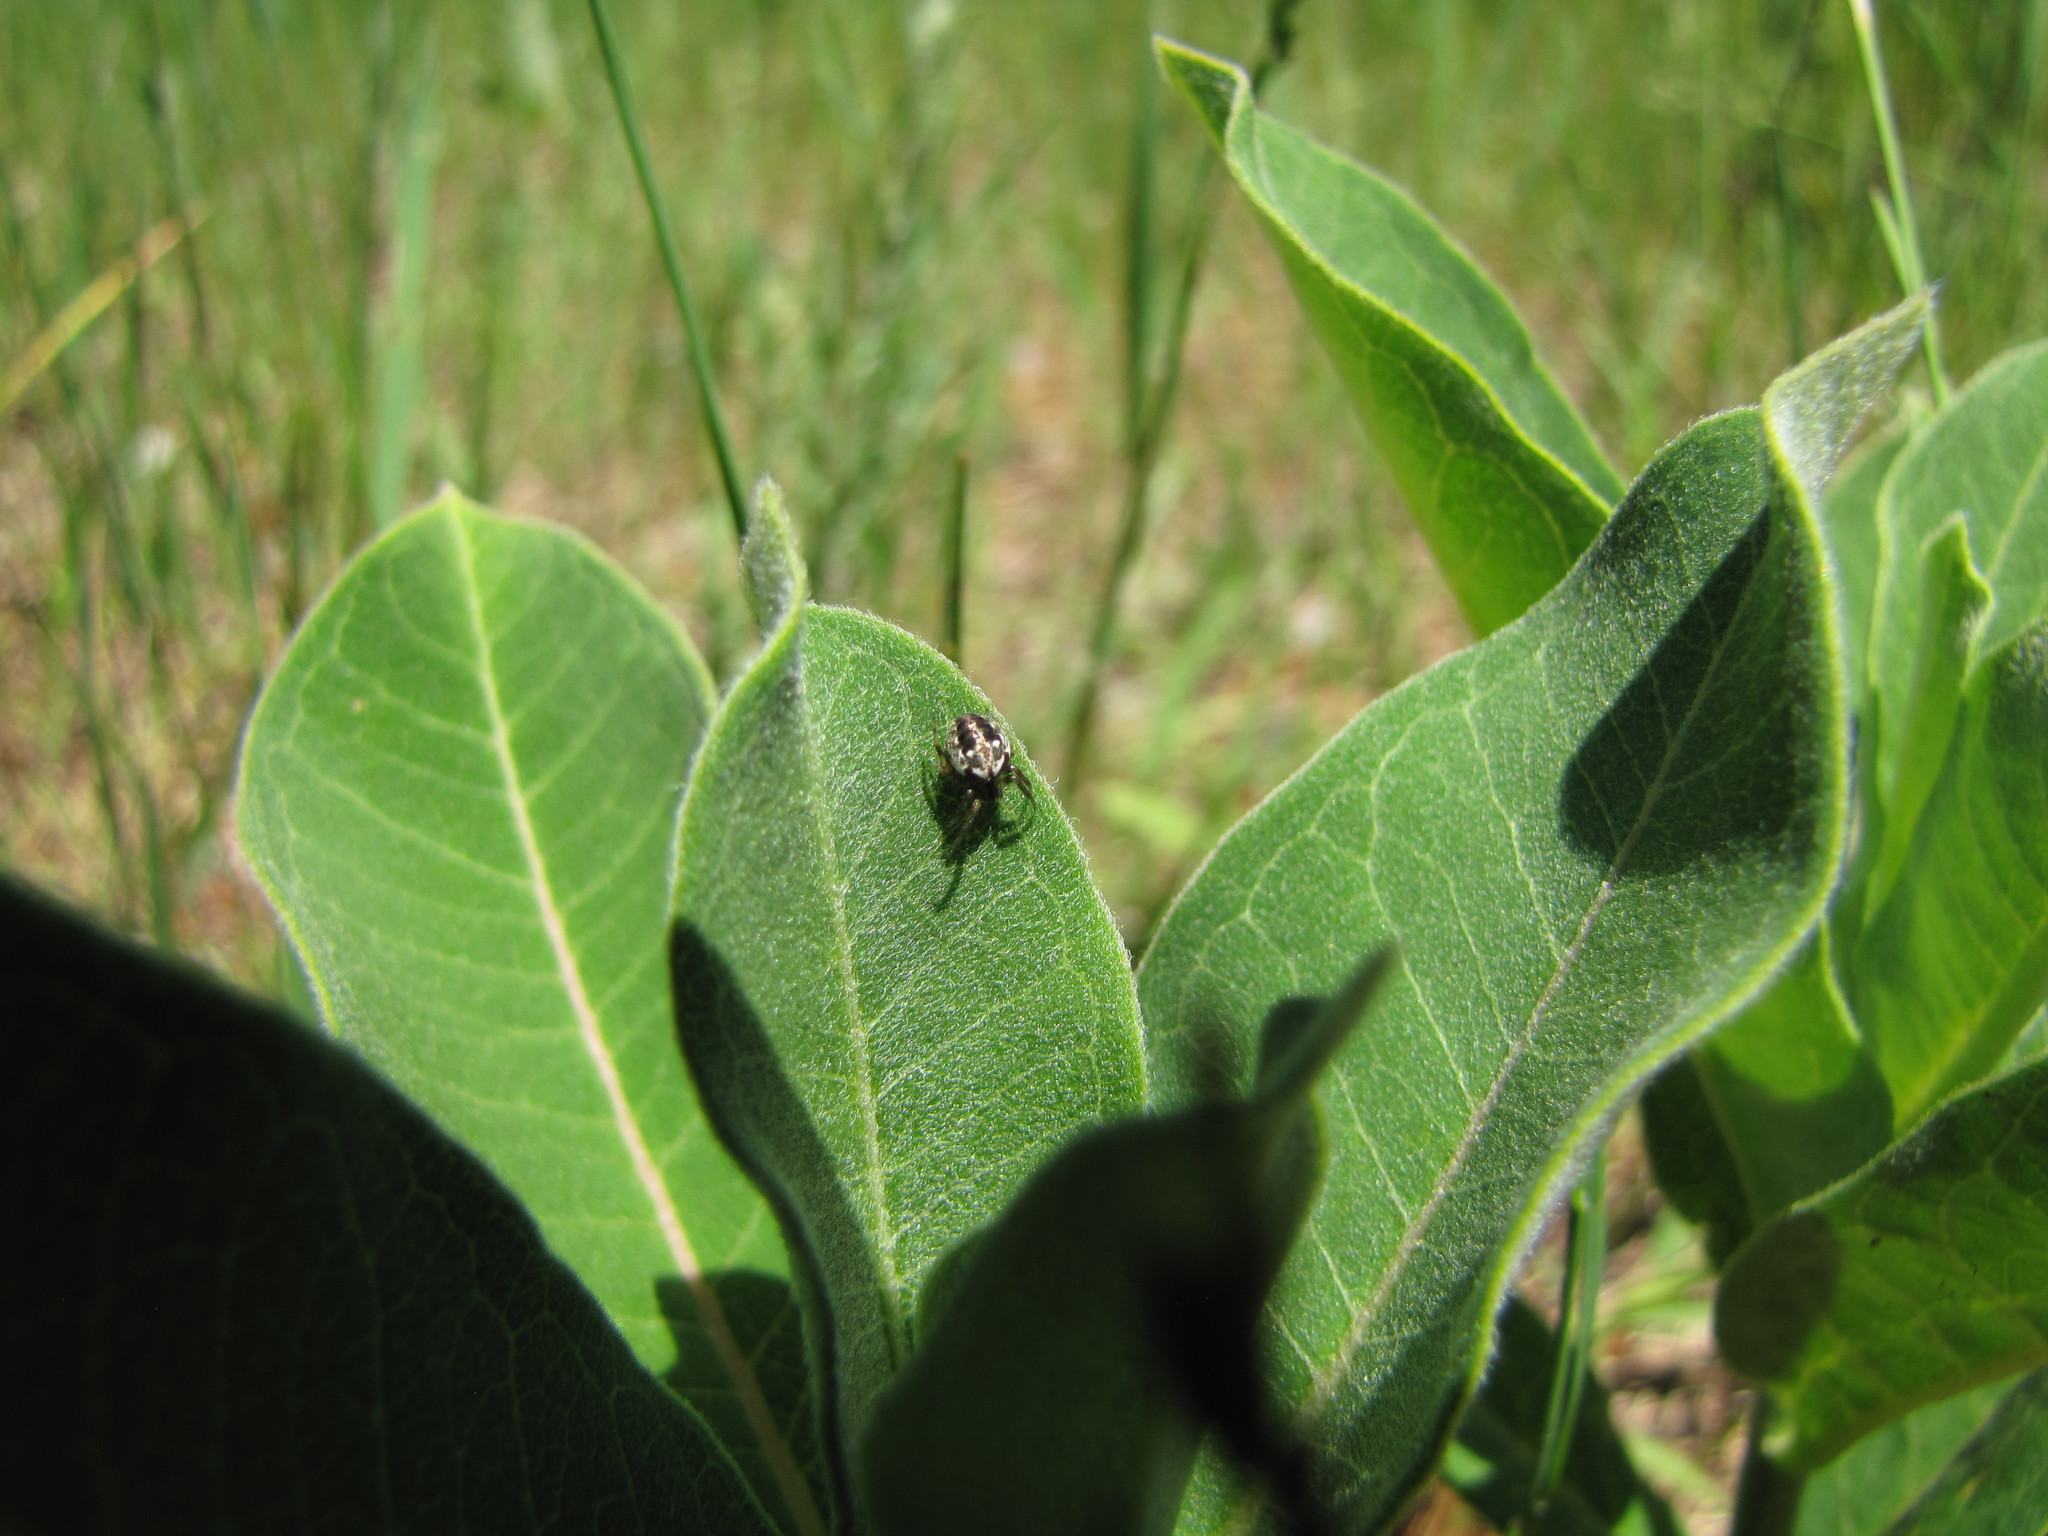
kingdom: Animalia
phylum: Arthropoda
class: Arachnida
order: Araneae
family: Araneidae
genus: Neoscona
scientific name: Neoscona arabesca
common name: Orb weavers
